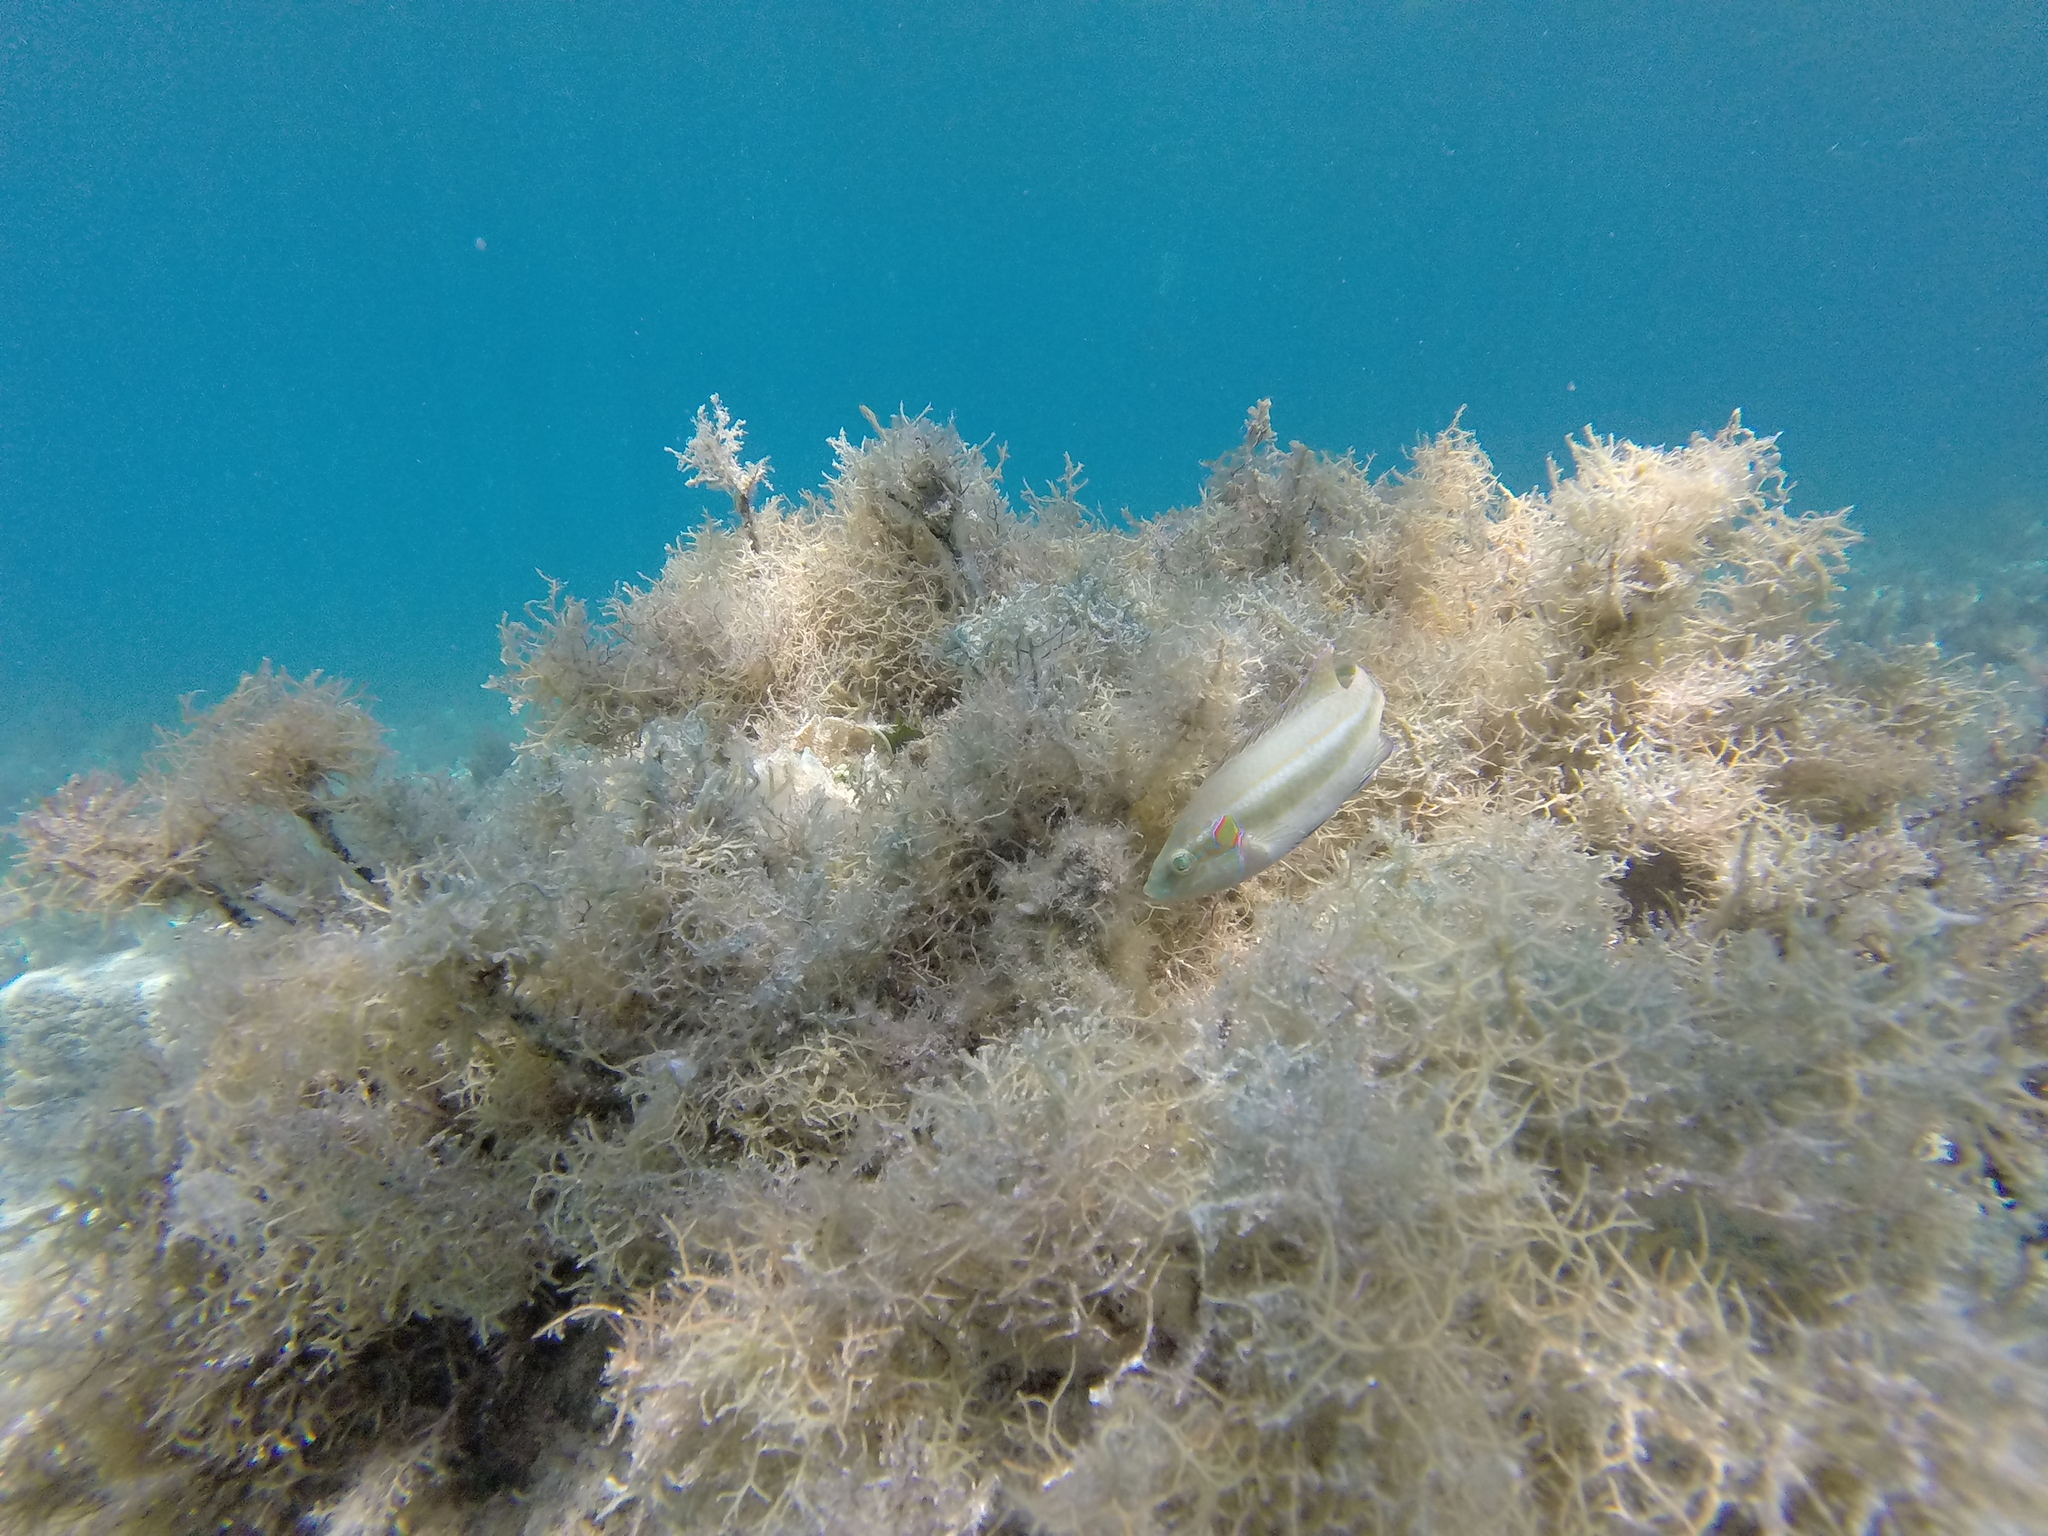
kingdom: Animalia
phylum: Chordata
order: Perciformes
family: Labridae
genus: Symphodus
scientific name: Symphodus ocellatus
